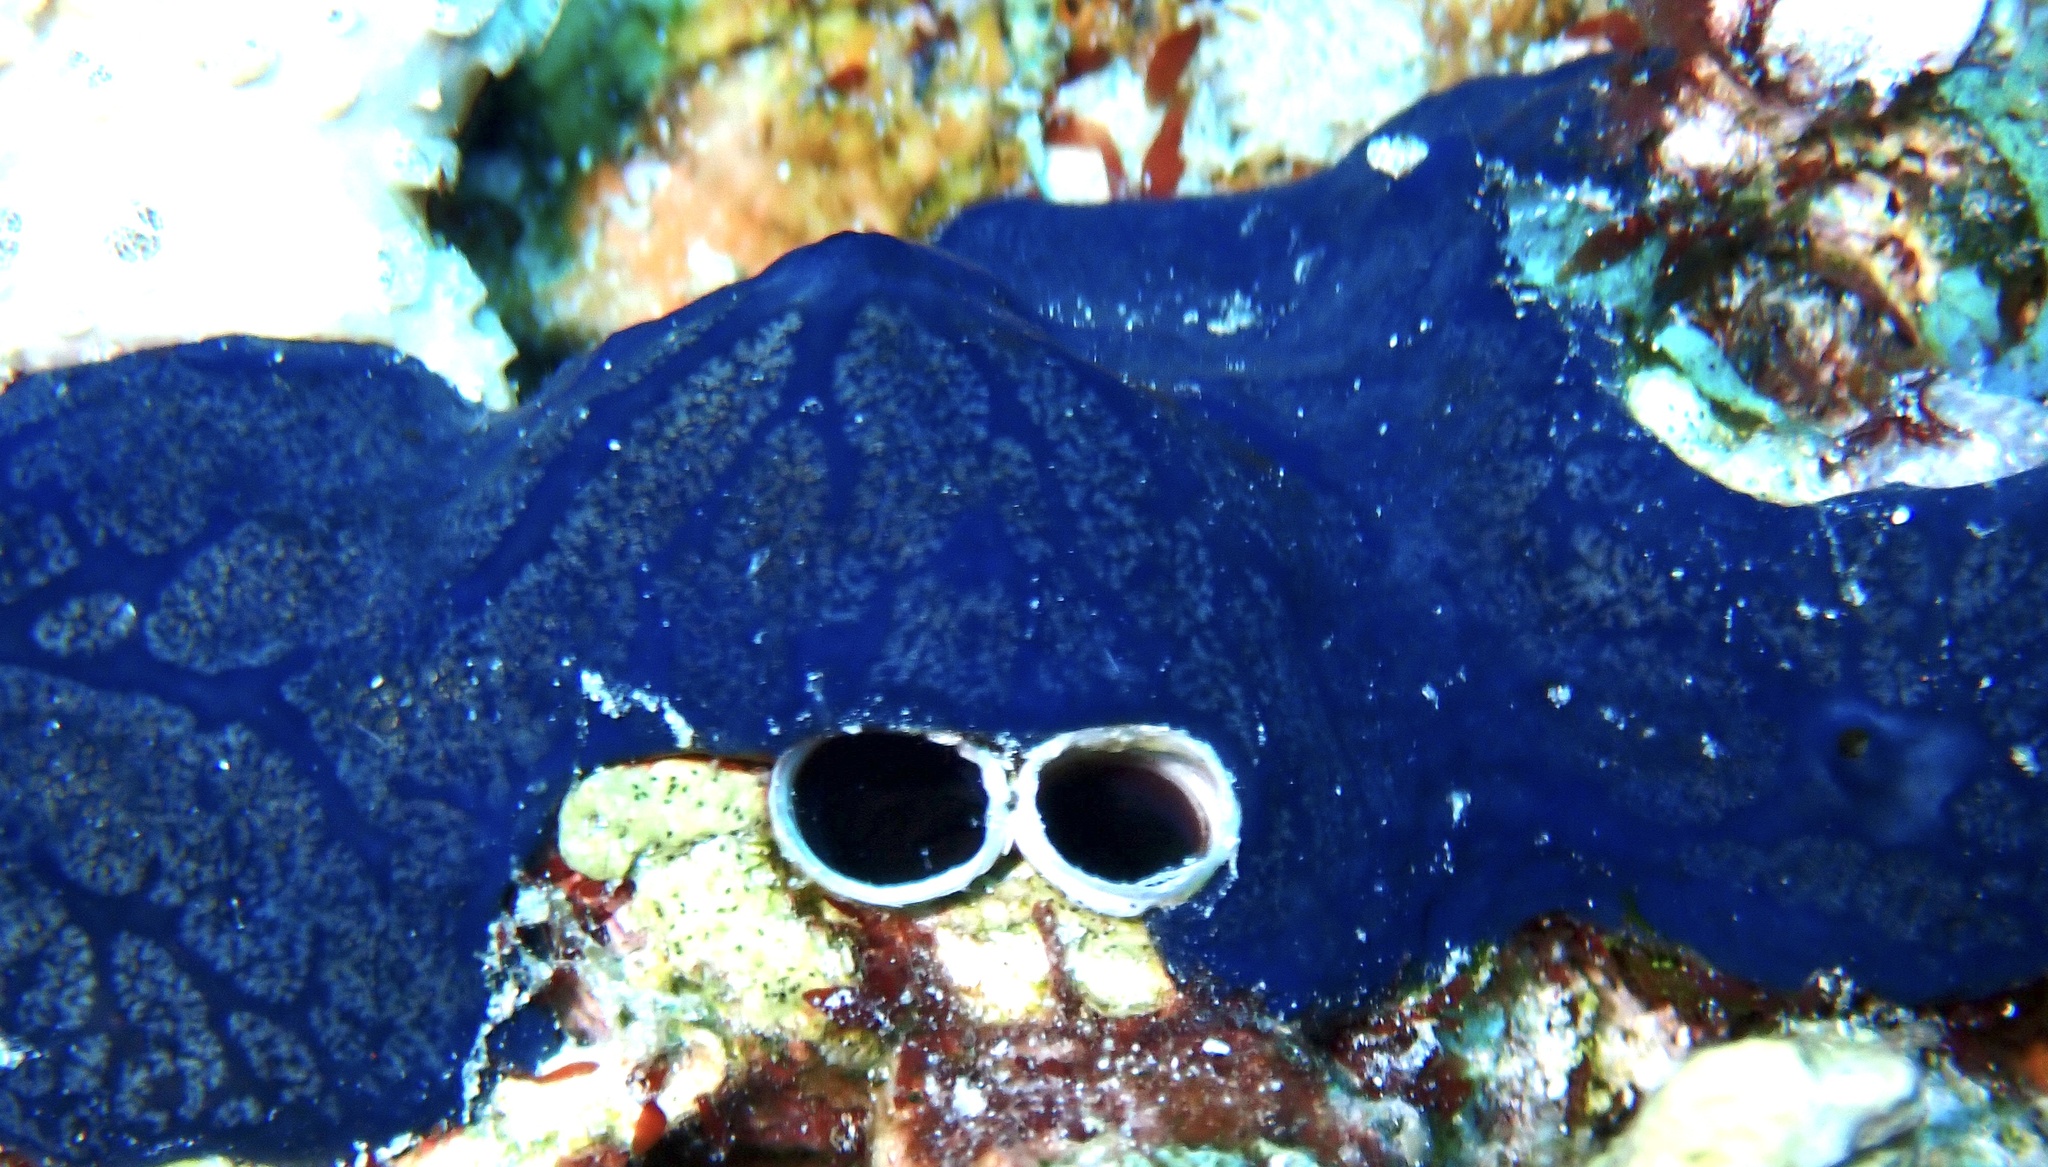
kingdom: Animalia
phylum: Porifera
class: Demospongiae
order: Poecilosclerida
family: Hymedesmiidae
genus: Hemimycale
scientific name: Hemimycale arabica
